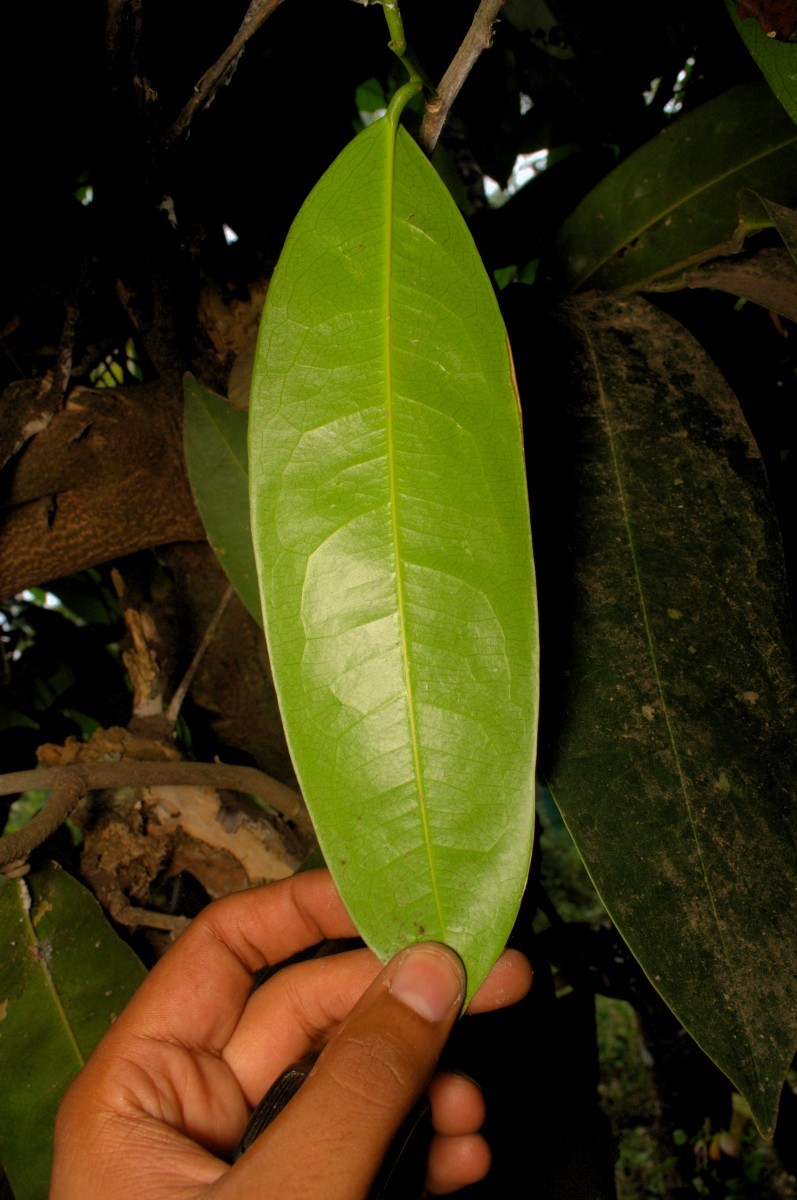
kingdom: Plantae
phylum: Tracheophyta
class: Magnoliopsida
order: Sapindales
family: Simaroubaceae
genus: Samadera
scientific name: Samadera indica
